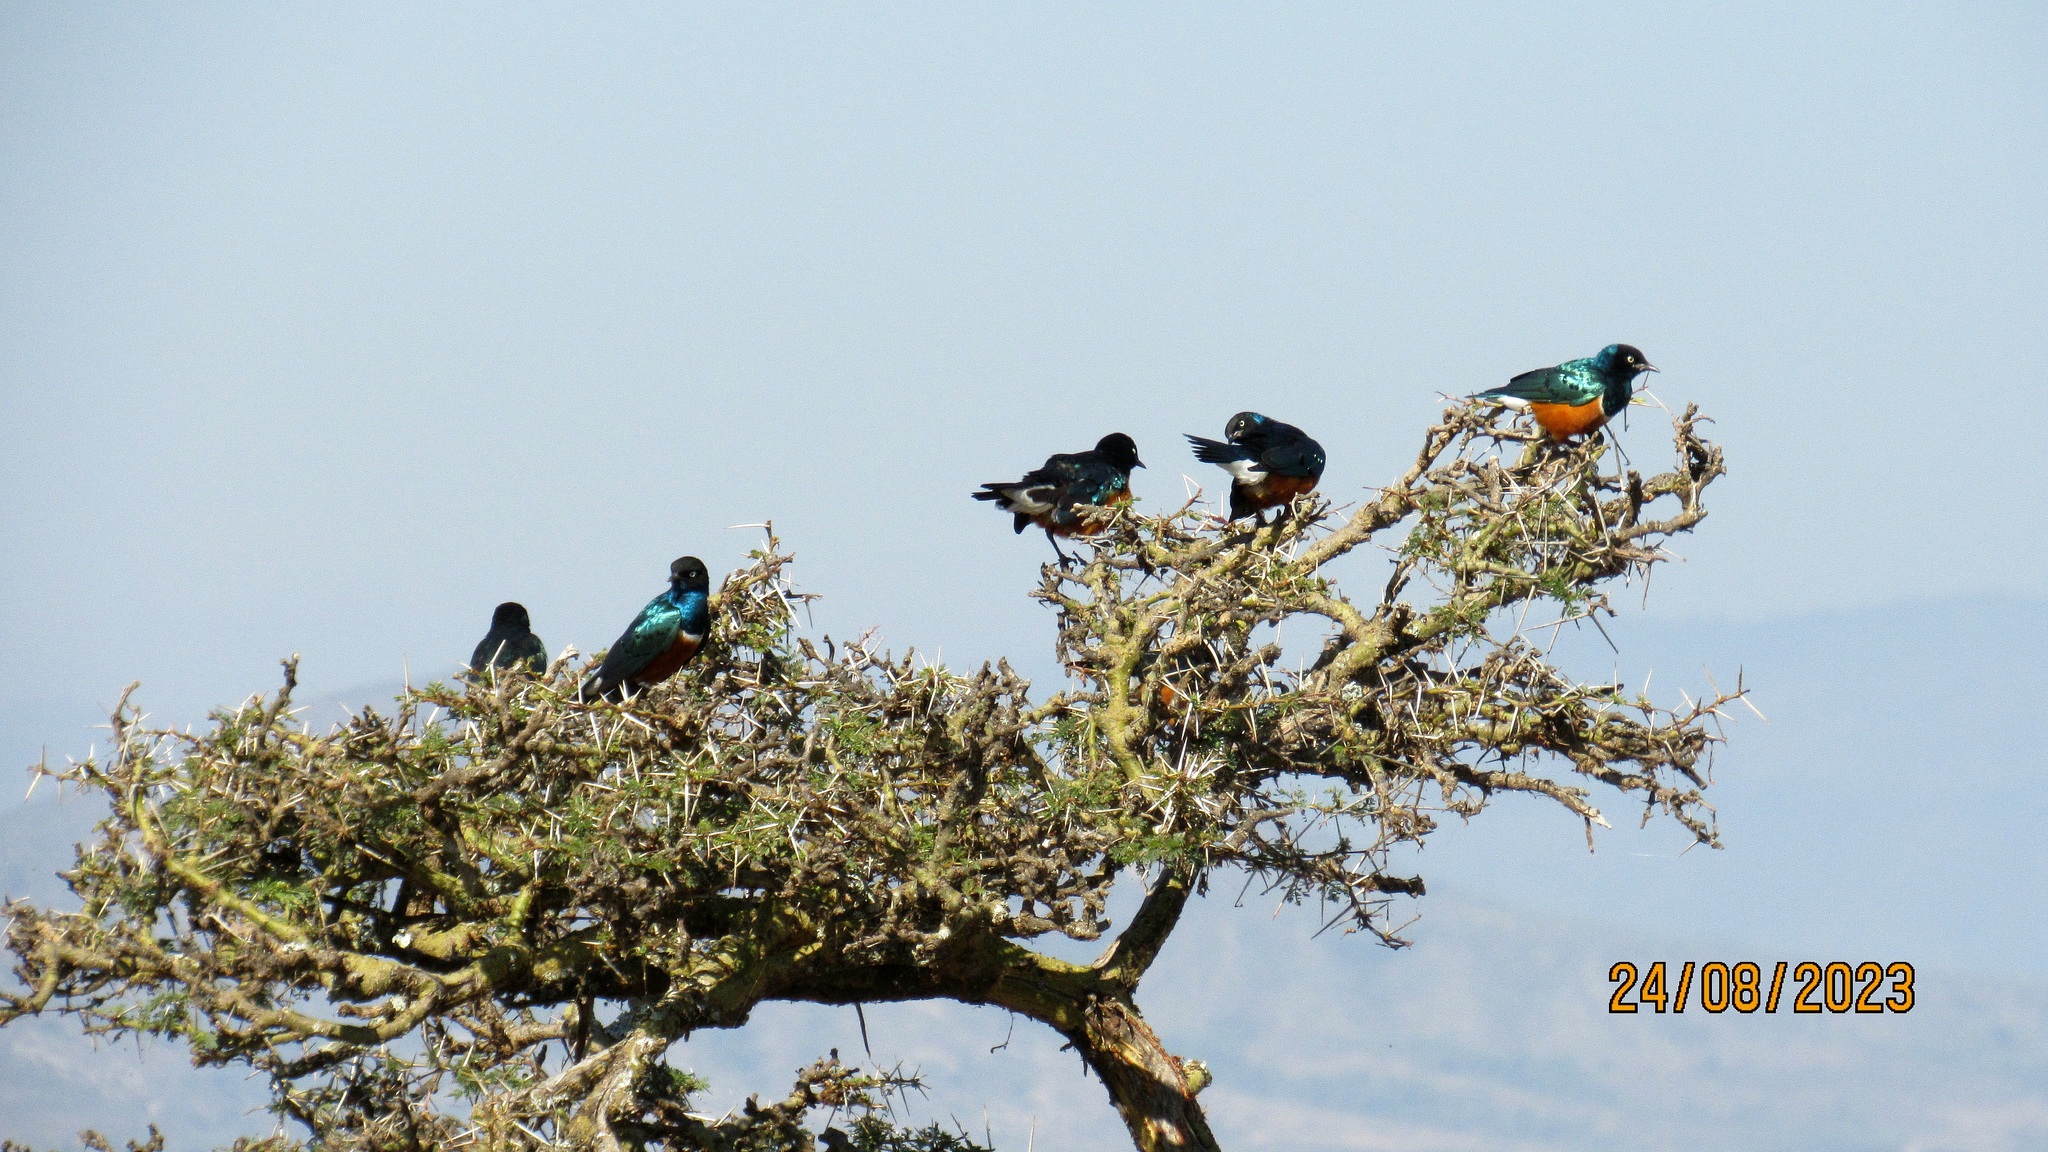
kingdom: Animalia
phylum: Chordata
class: Aves
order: Passeriformes
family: Sturnidae
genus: Lamprotornis
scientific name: Lamprotornis superbus
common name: Superb starling
